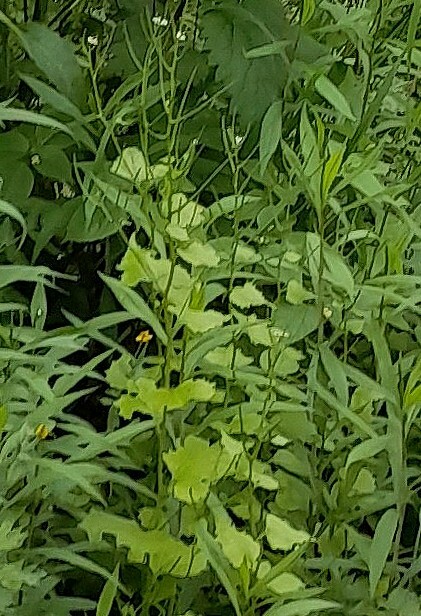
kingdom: Plantae
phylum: Tracheophyta
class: Magnoliopsida
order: Brassicales
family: Brassicaceae
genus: Alliaria
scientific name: Alliaria petiolata
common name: Garlic mustard
